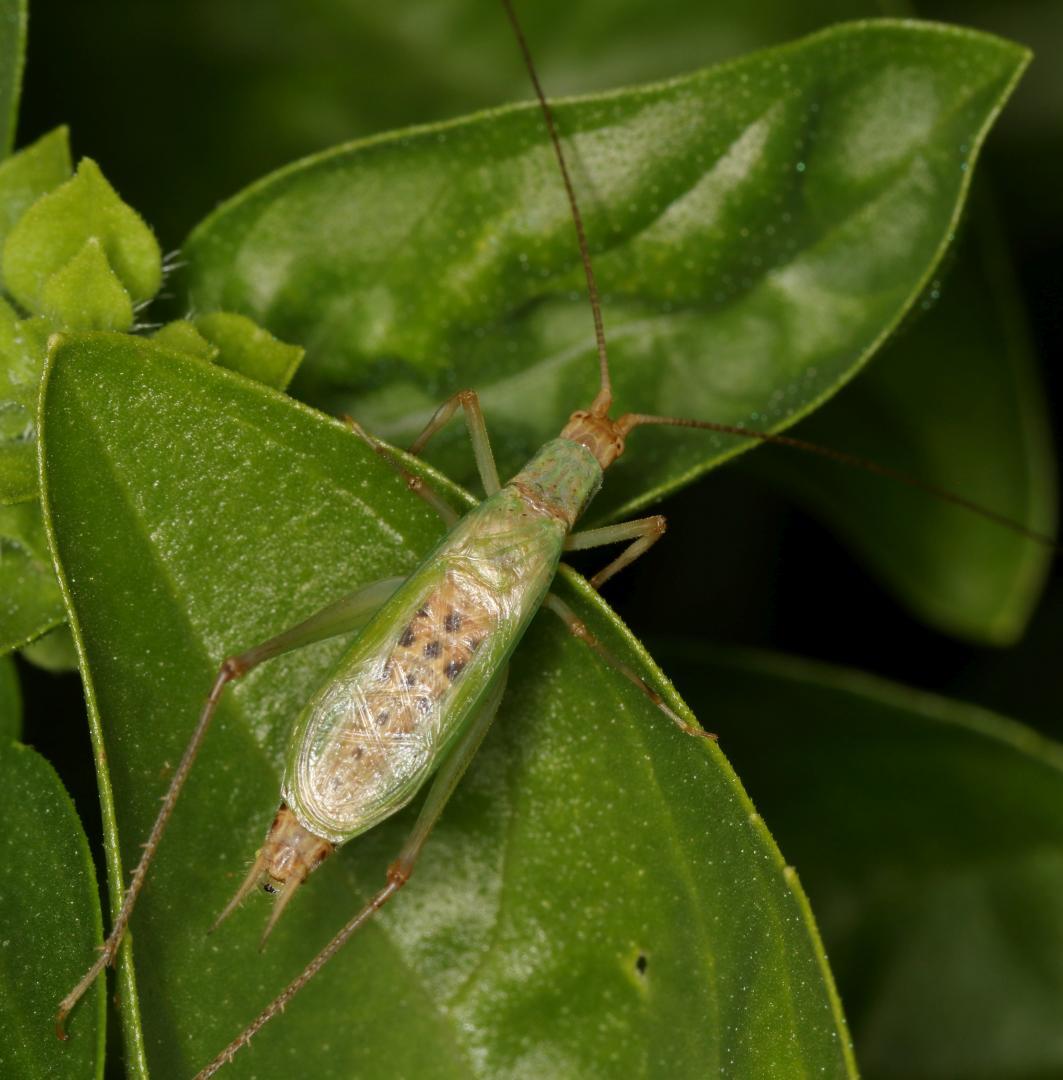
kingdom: Animalia
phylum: Arthropoda
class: Insecta
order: Orthoptera
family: Gryllidae
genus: Oecanthus
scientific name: Oecanthus capensis
